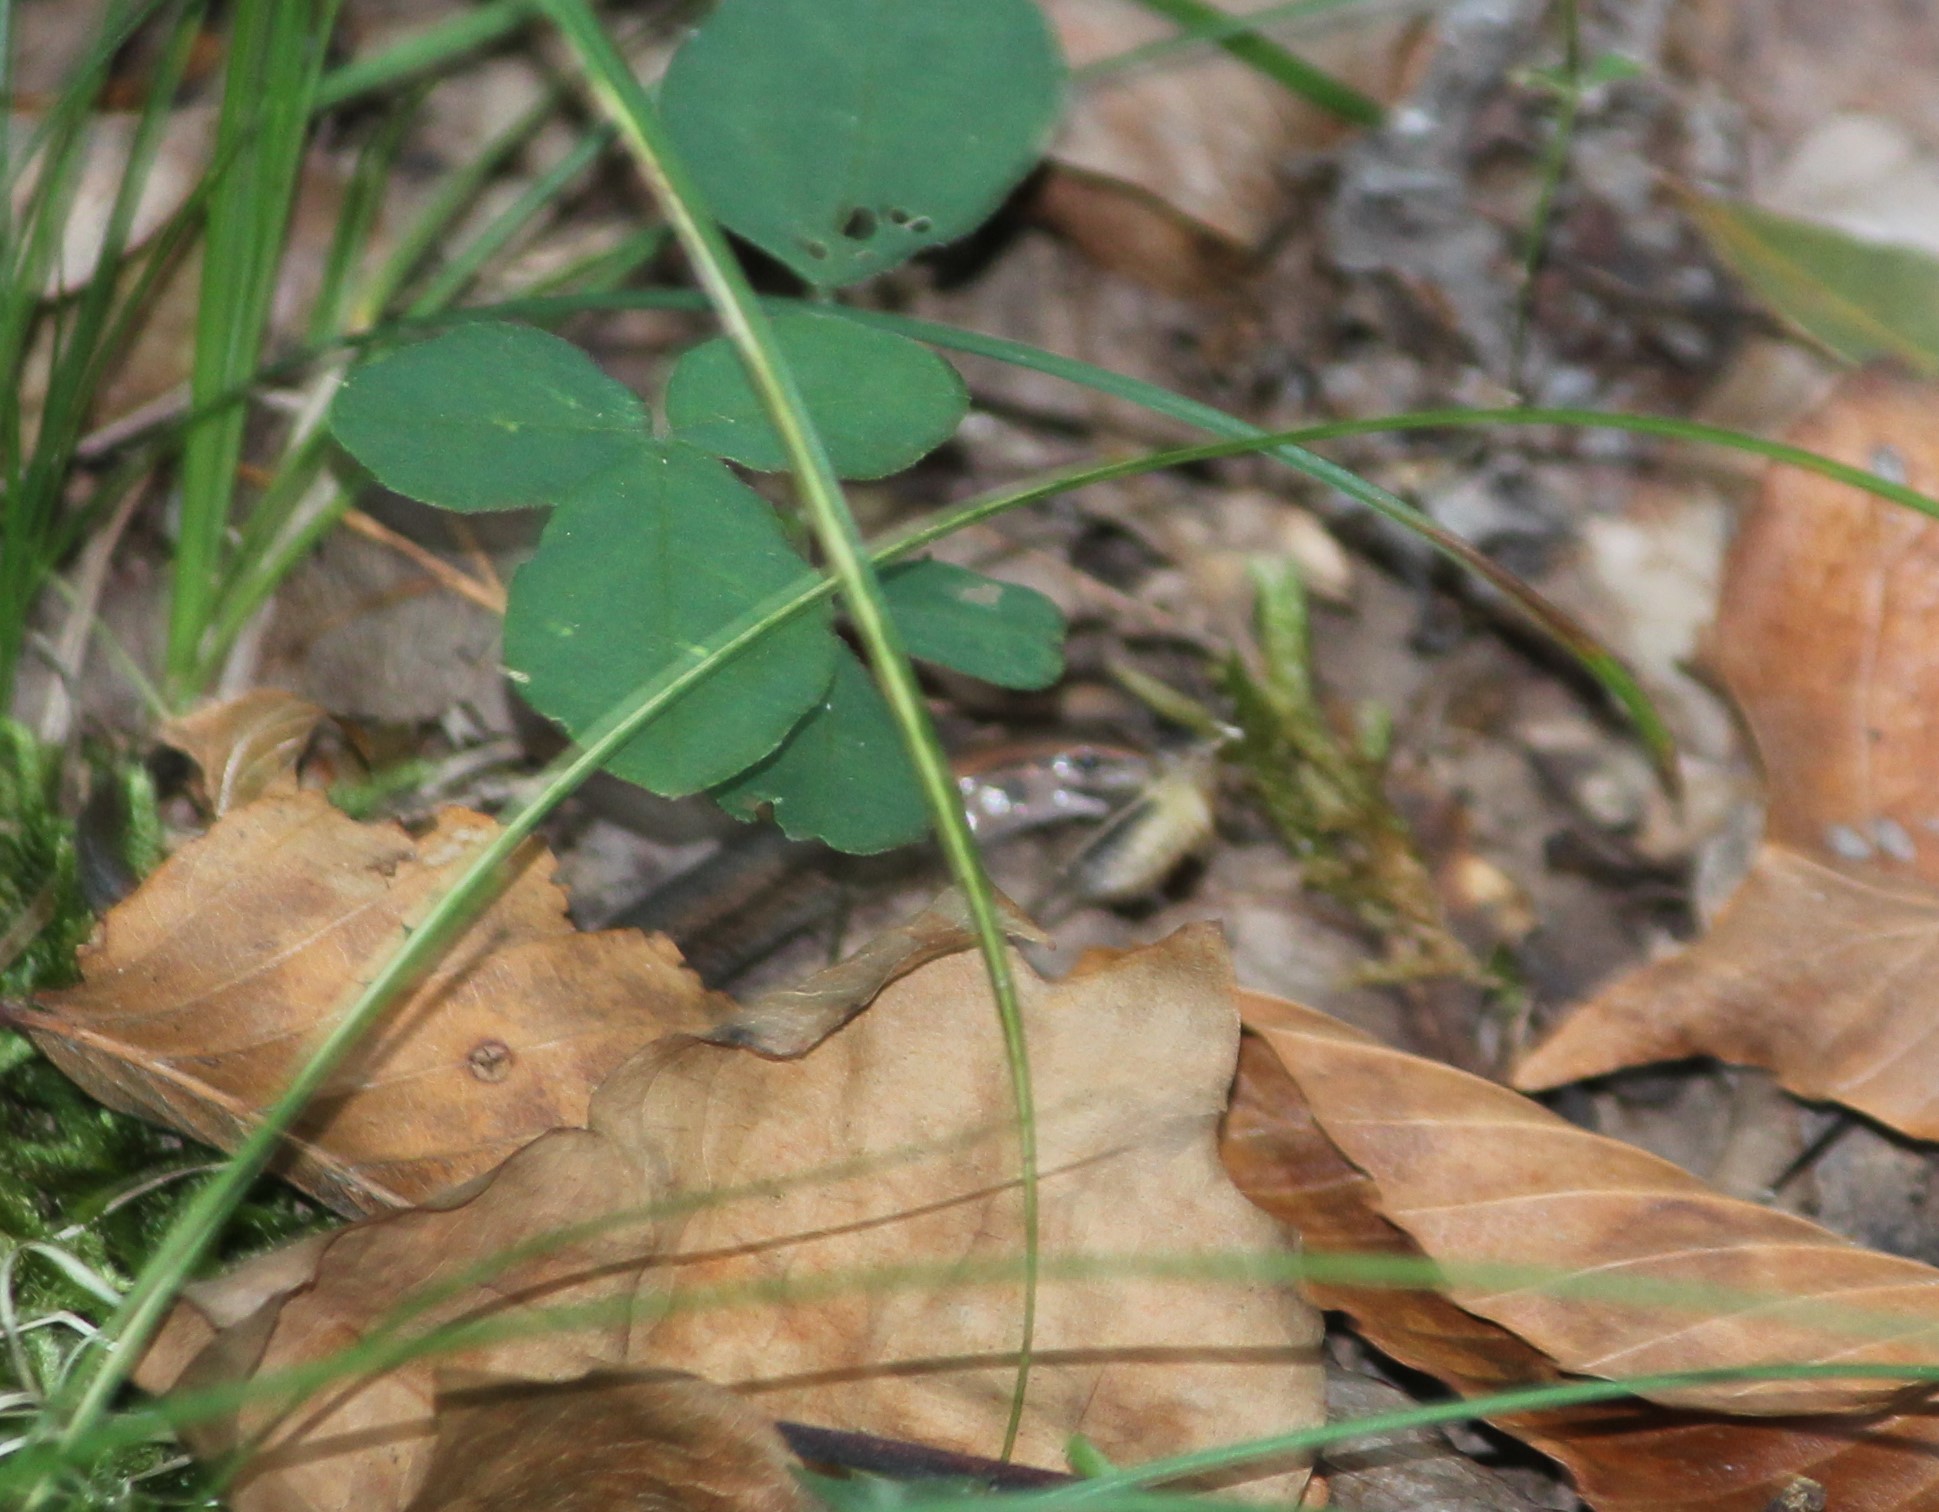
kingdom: Animalia
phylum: Chordata
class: Squamata
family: Scincidae
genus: Scincella
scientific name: Scincella lateralis
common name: Ground skink
